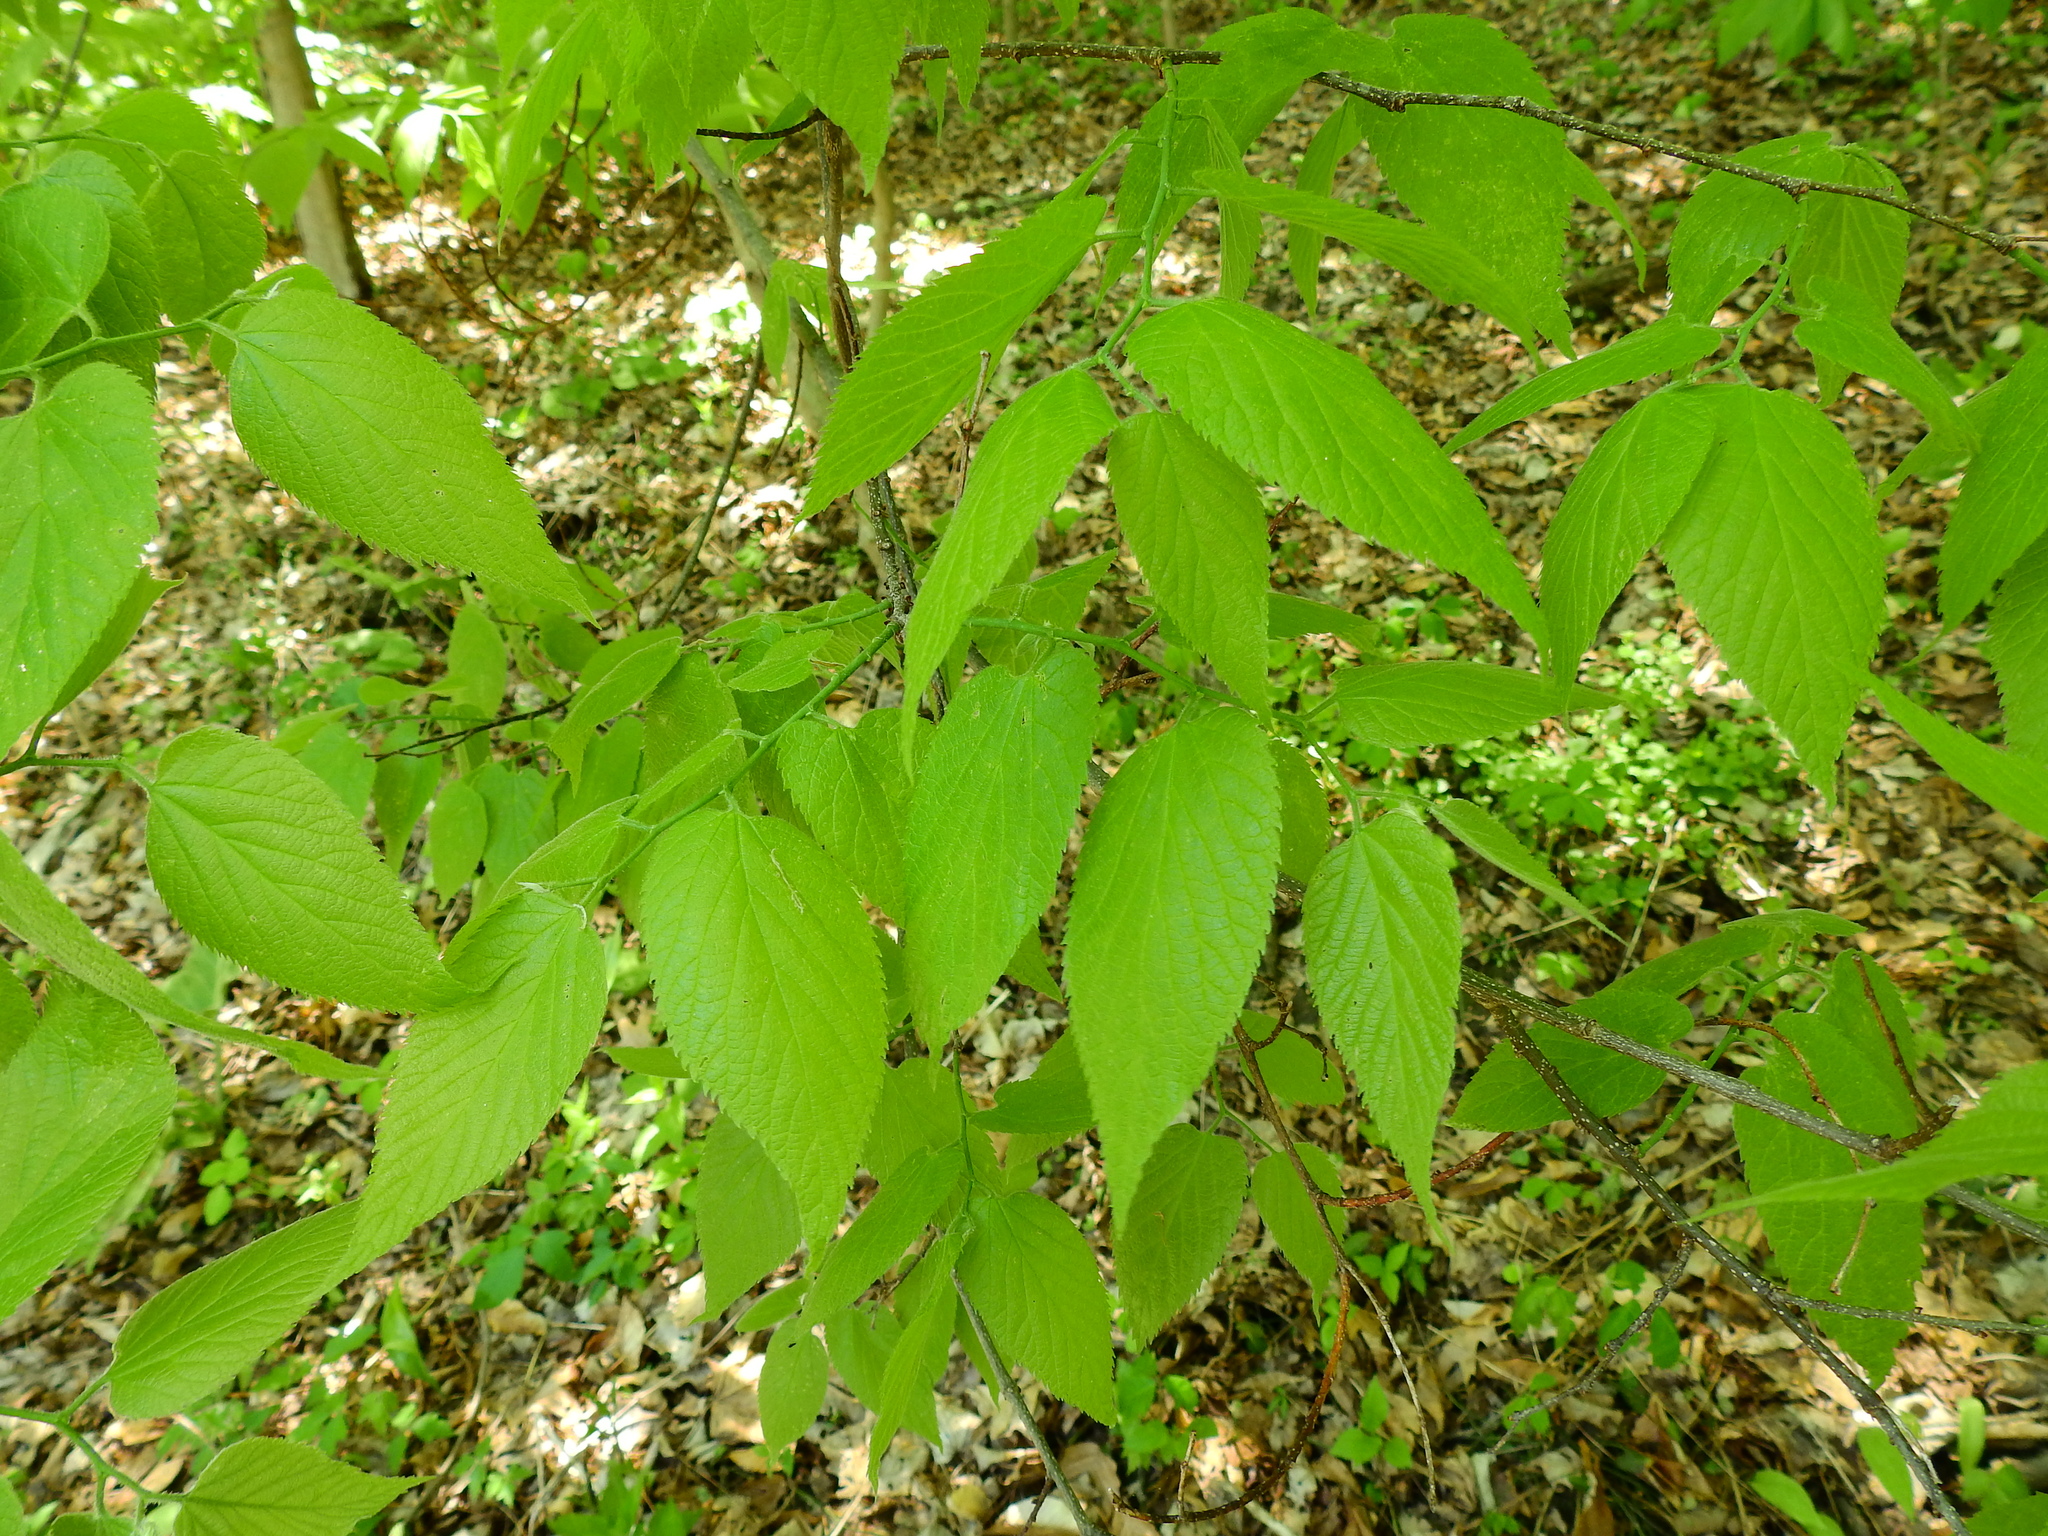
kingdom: Plantae
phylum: Tracheophyta
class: Magnoliopsida
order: Rosales
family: Cannabaceae
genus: Celtis
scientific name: Celtis occidentalis
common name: Common hackberry
